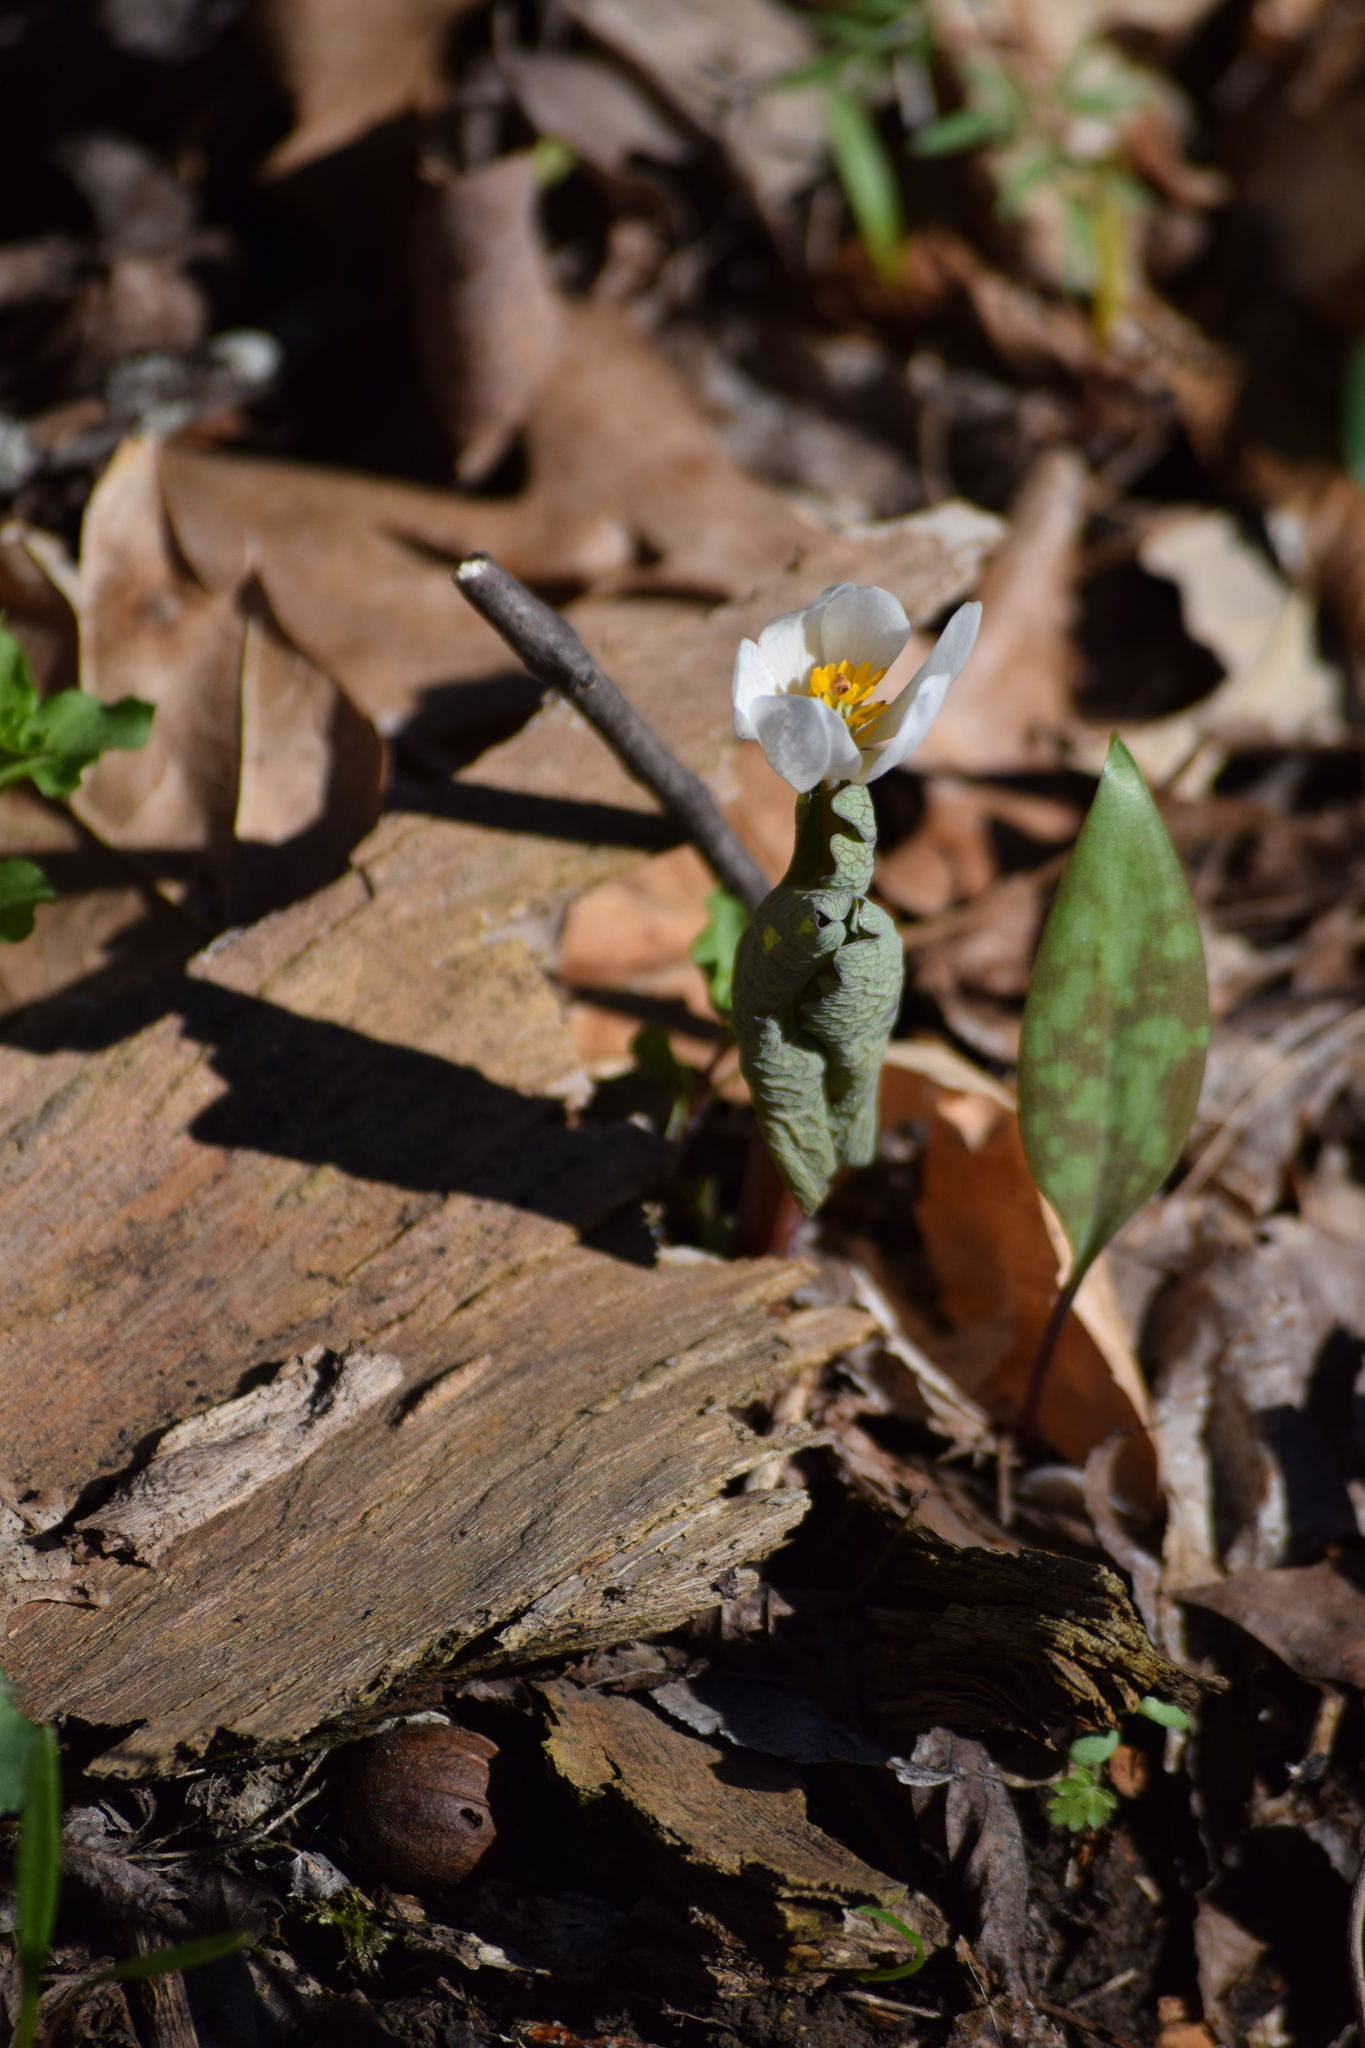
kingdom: Plantae
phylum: Tracheophyta
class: Magnoliopsida
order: Ranunculales
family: Papaveraceae
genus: Sanguinaria
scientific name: Sanguinaria canadensis
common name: Bloodroot
